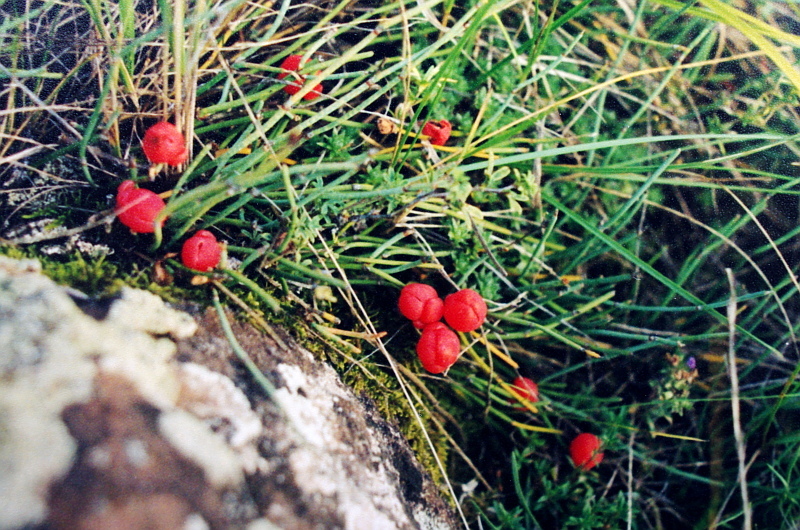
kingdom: Plantae
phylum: Tracheophyta
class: Gnetopsida
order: Ephedrales
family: Ephedraceae
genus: Ephedra
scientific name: Ephedra distachya
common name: Sea grape
